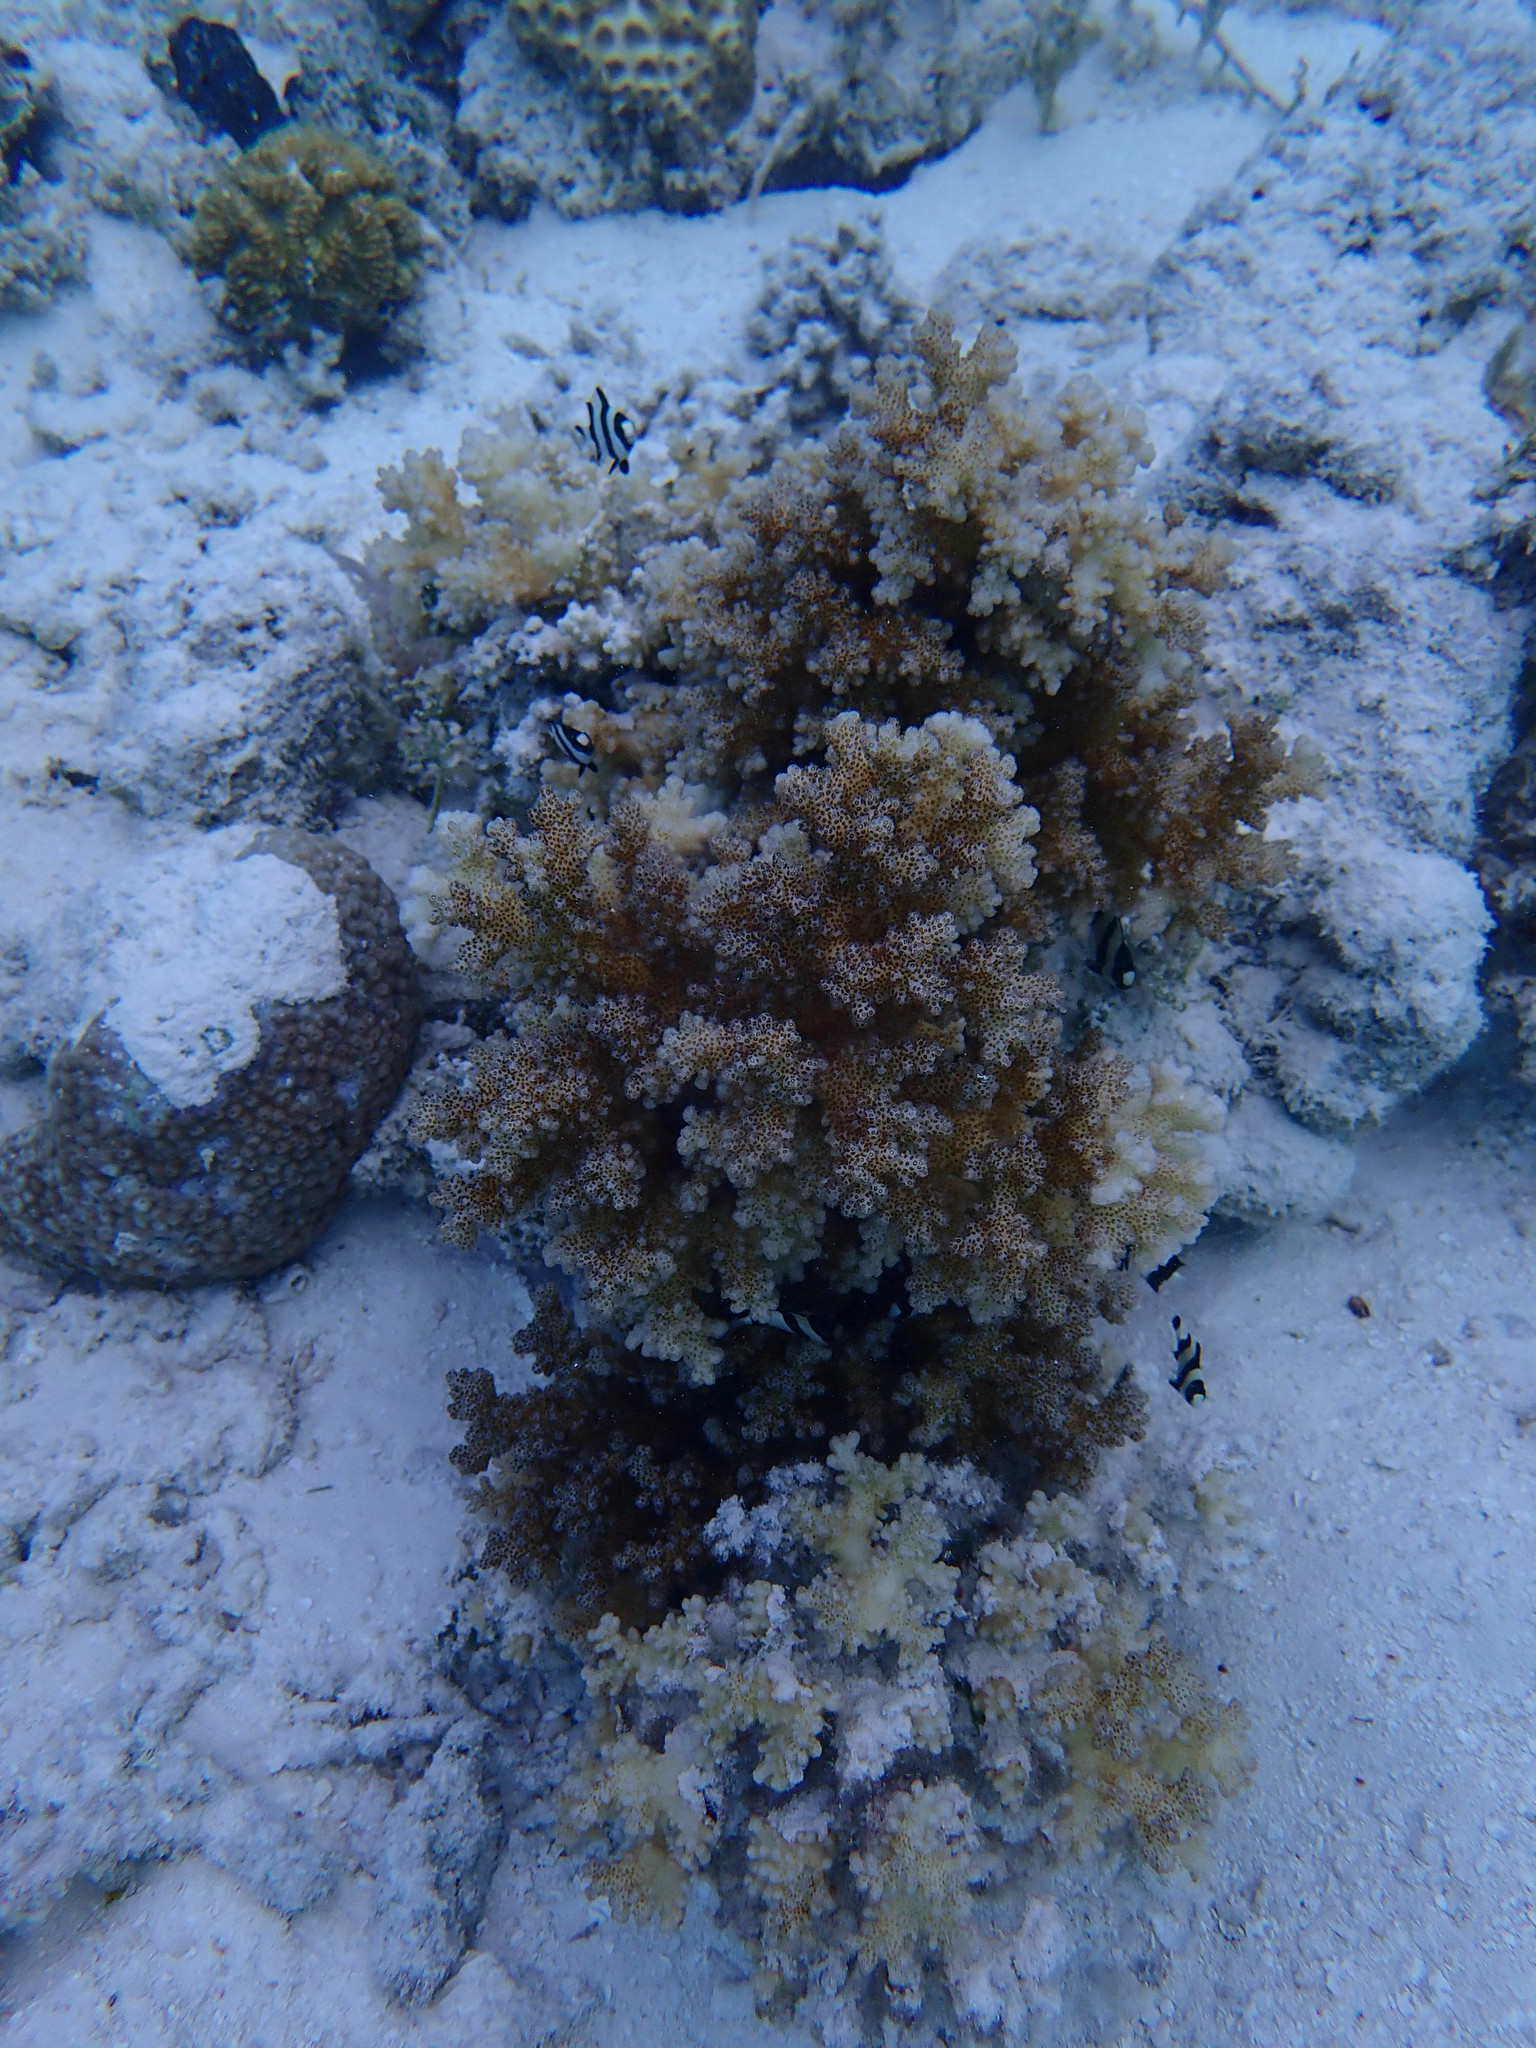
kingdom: Animalia
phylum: Cnidaria
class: Anthozoa
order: Scleractinia
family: Pocilloporidae
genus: Pocillopora
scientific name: Pocillopora damicornis
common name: Cauliflower coral
